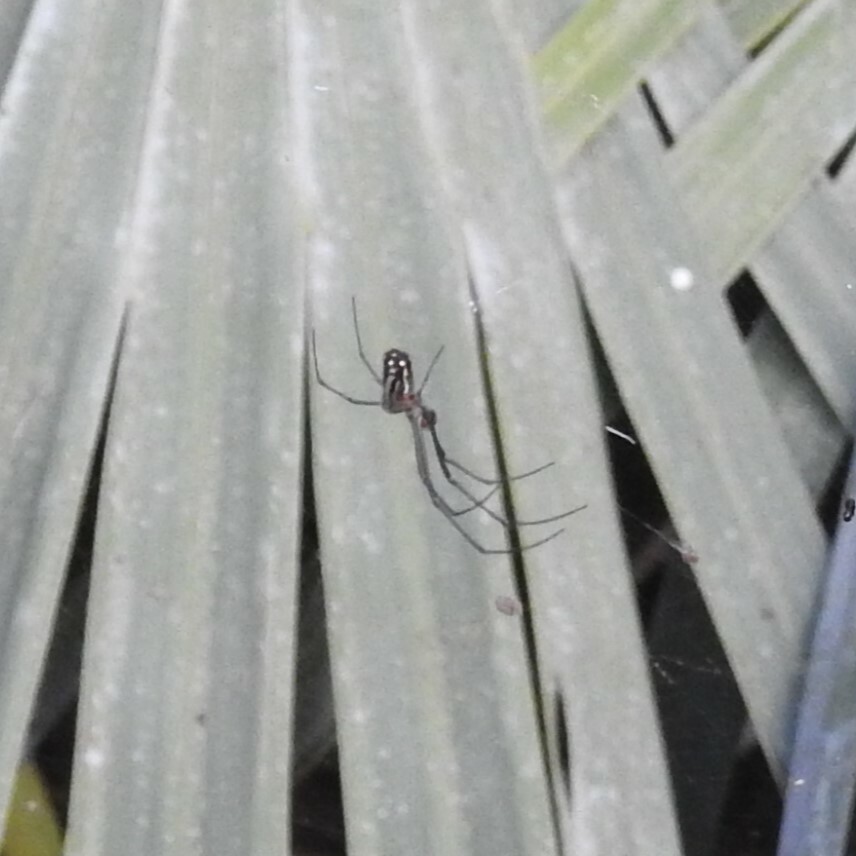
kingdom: Animalia
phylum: Arthropoda
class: Arachnida
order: Araneae
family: Tetragnathidae
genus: Leucauge
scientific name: Leucauge argyra
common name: Longjawed orb weavers
